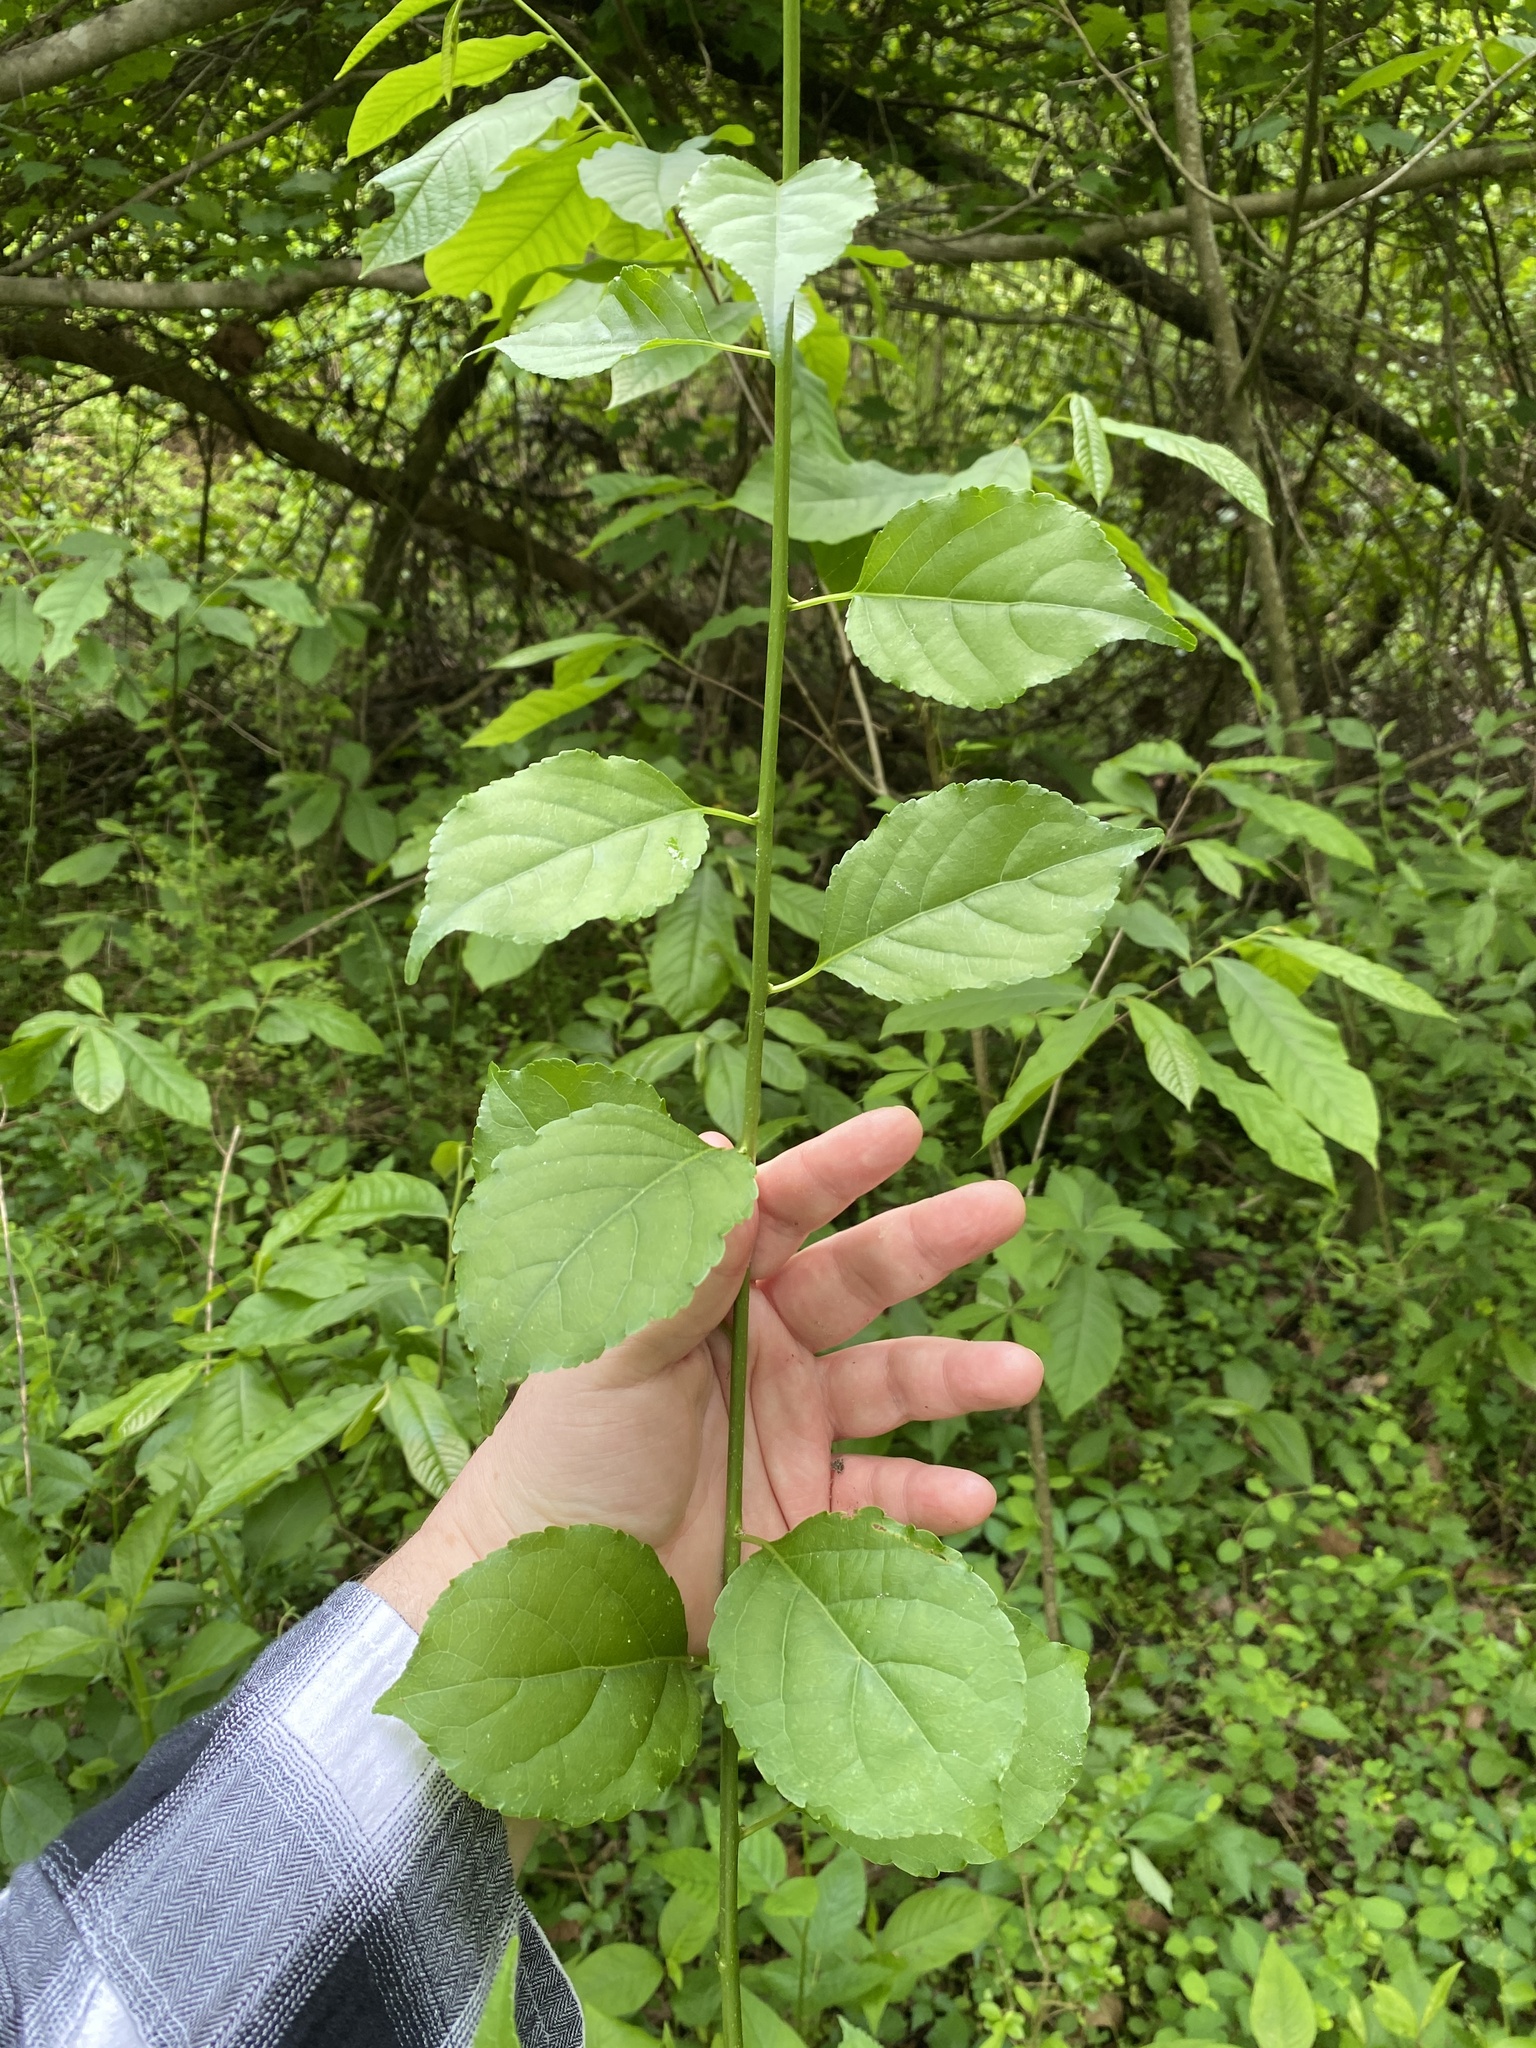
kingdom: Plantae
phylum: Tracheophyta
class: Magnoliopsida
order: Celastrales
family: Celastraceae
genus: Celastrus
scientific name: Celastrus orbiculatus
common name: Oriental bittersweet
